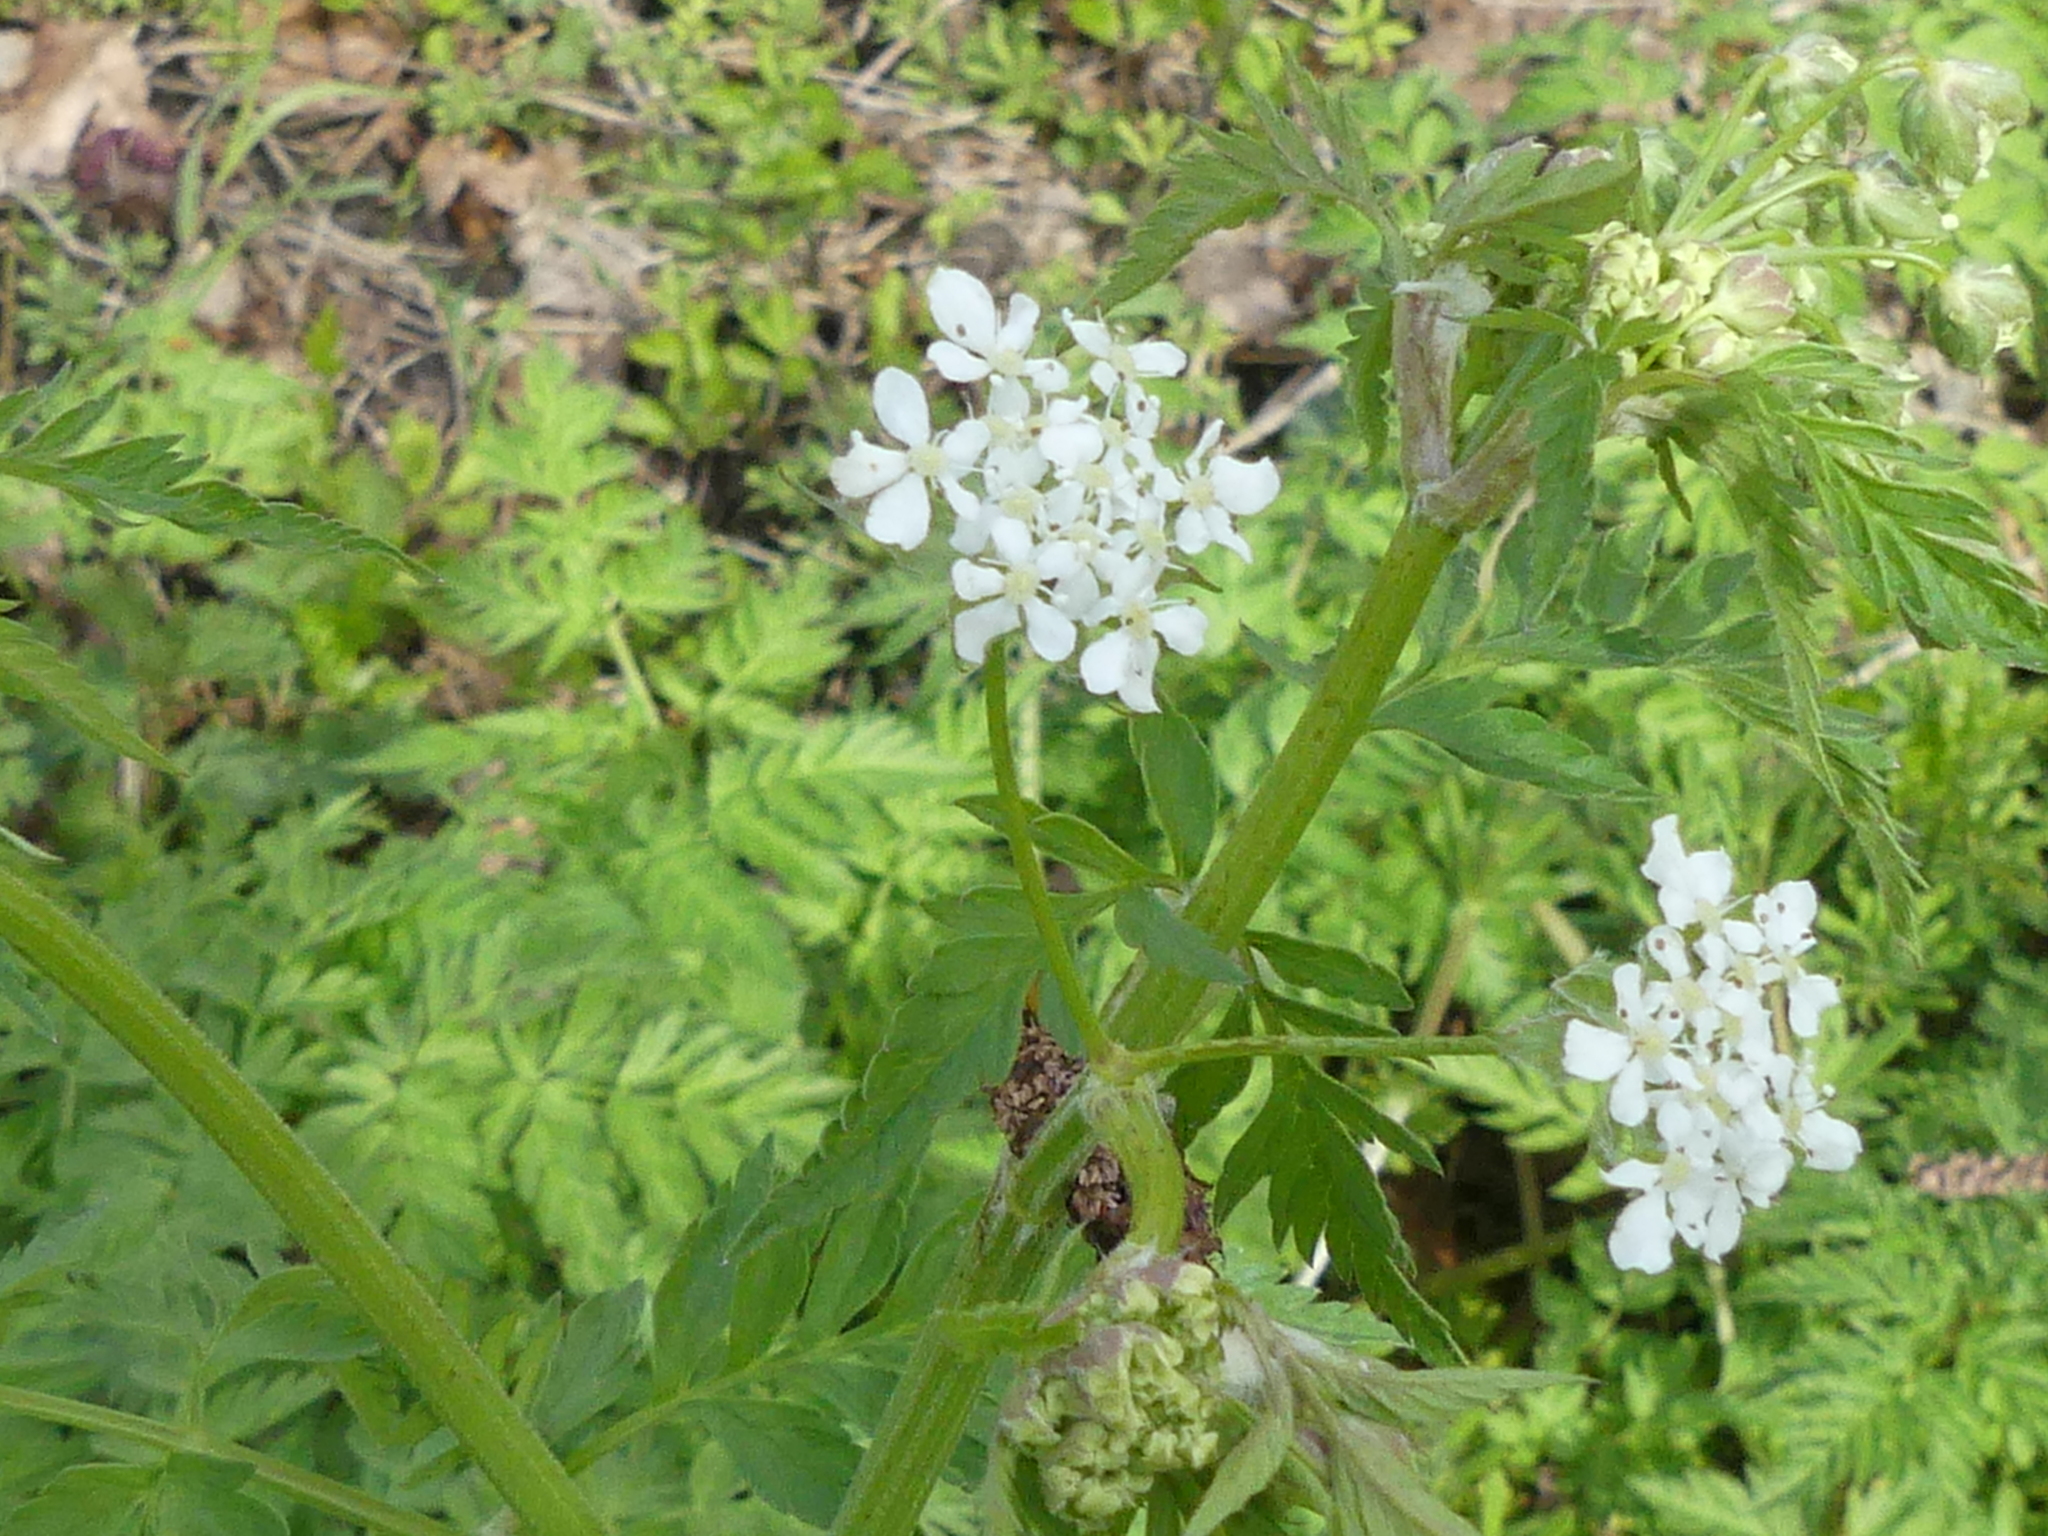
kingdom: Plantae
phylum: Tracheophyta
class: Magnoliopsida
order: Apiales
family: Apiaceae
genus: Anthriscus
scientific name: Anthriscus sylvestris
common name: Cow parsley
